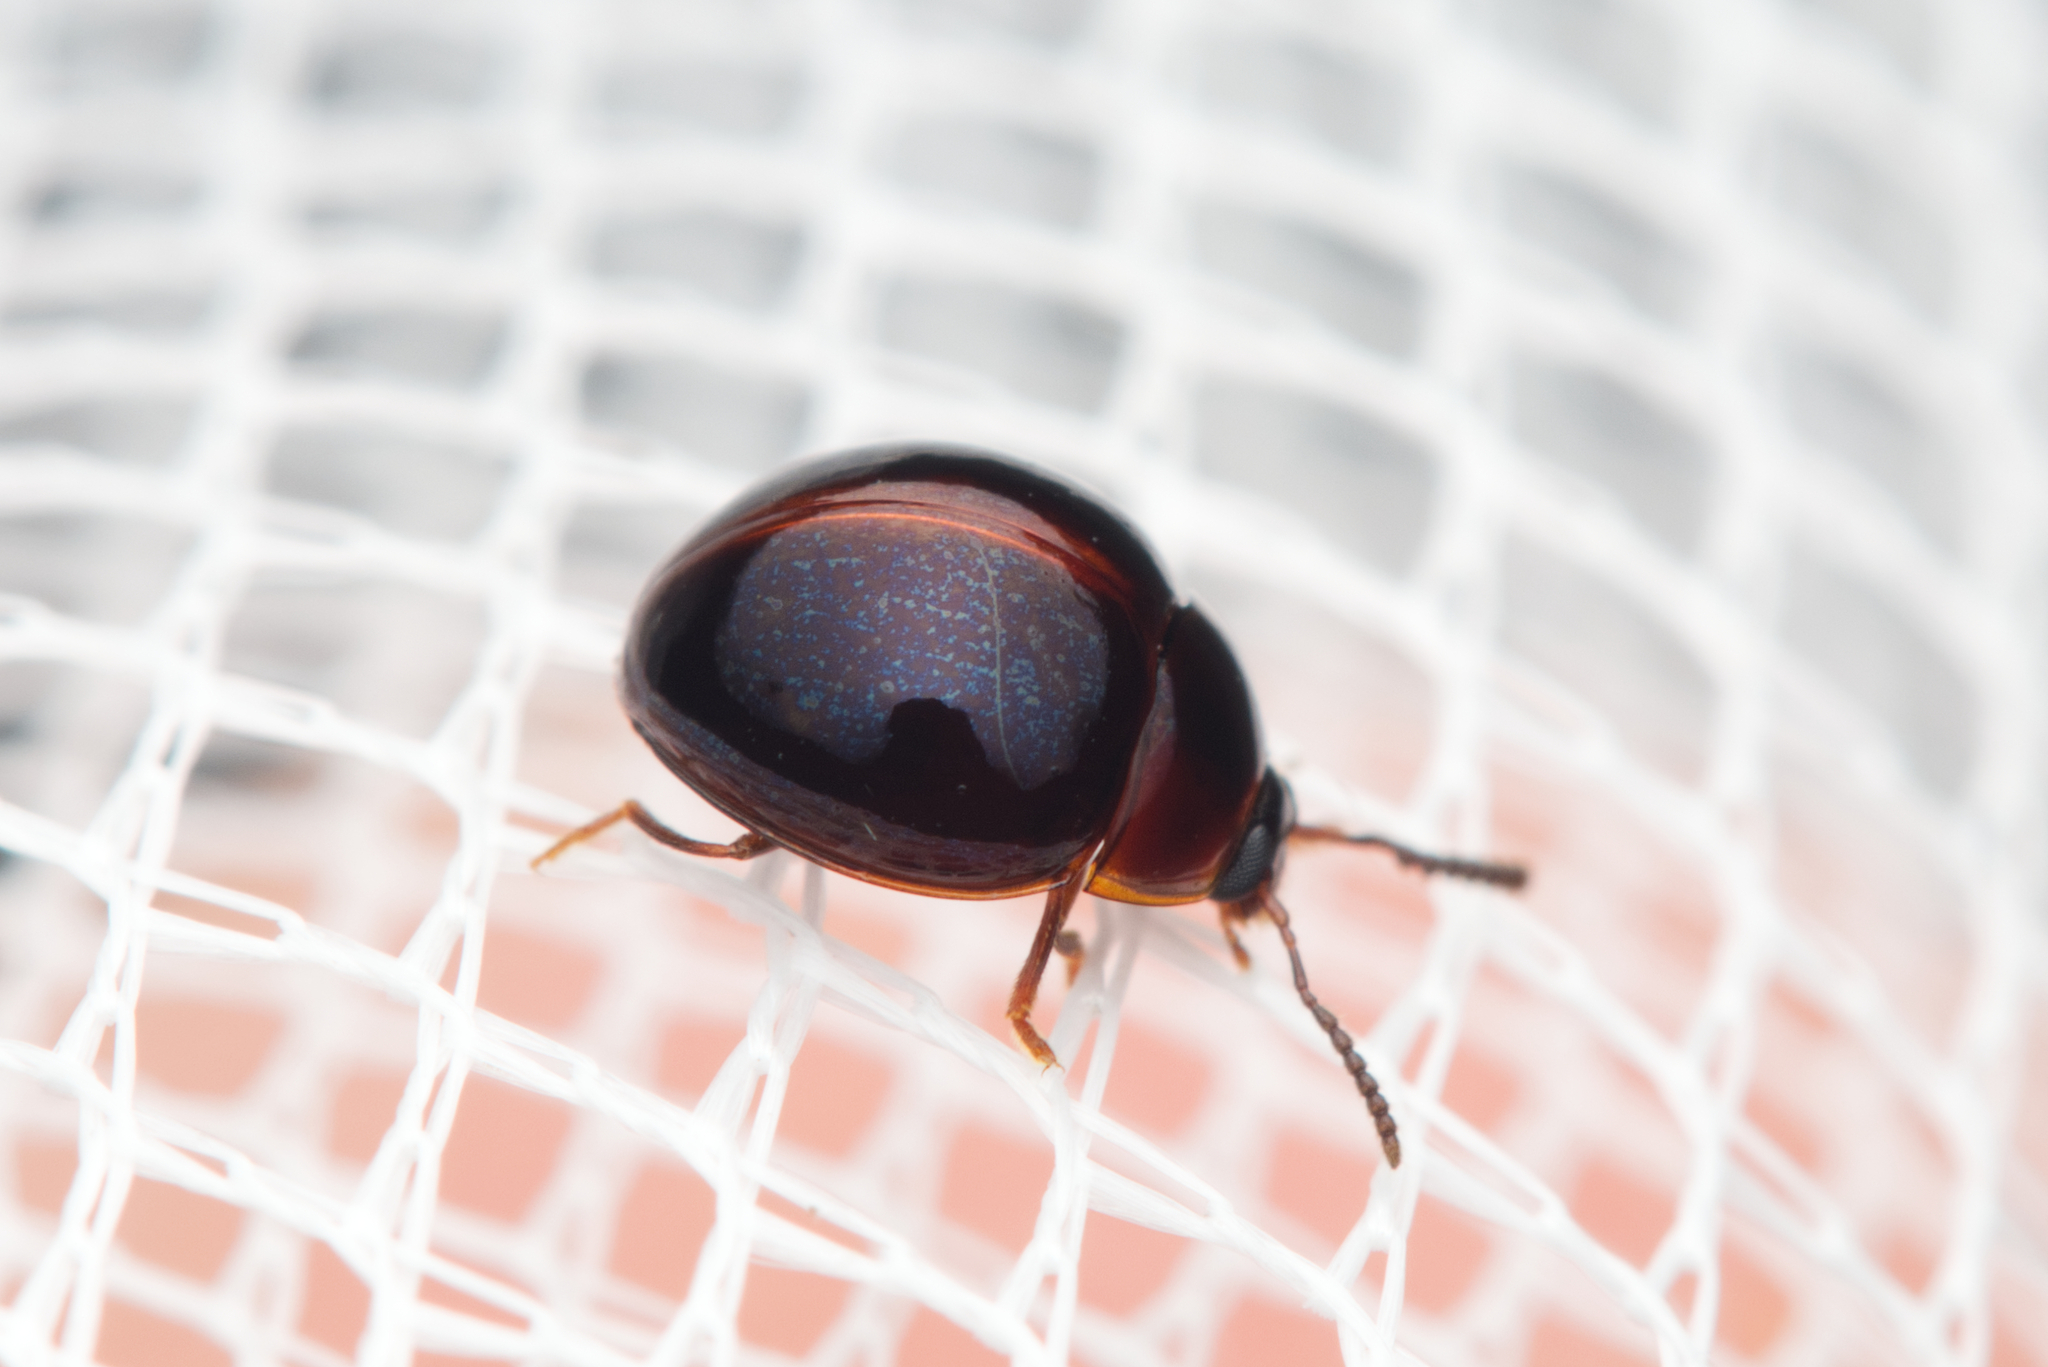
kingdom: Animalia
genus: Leiochrodes
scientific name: Leiochrodes
